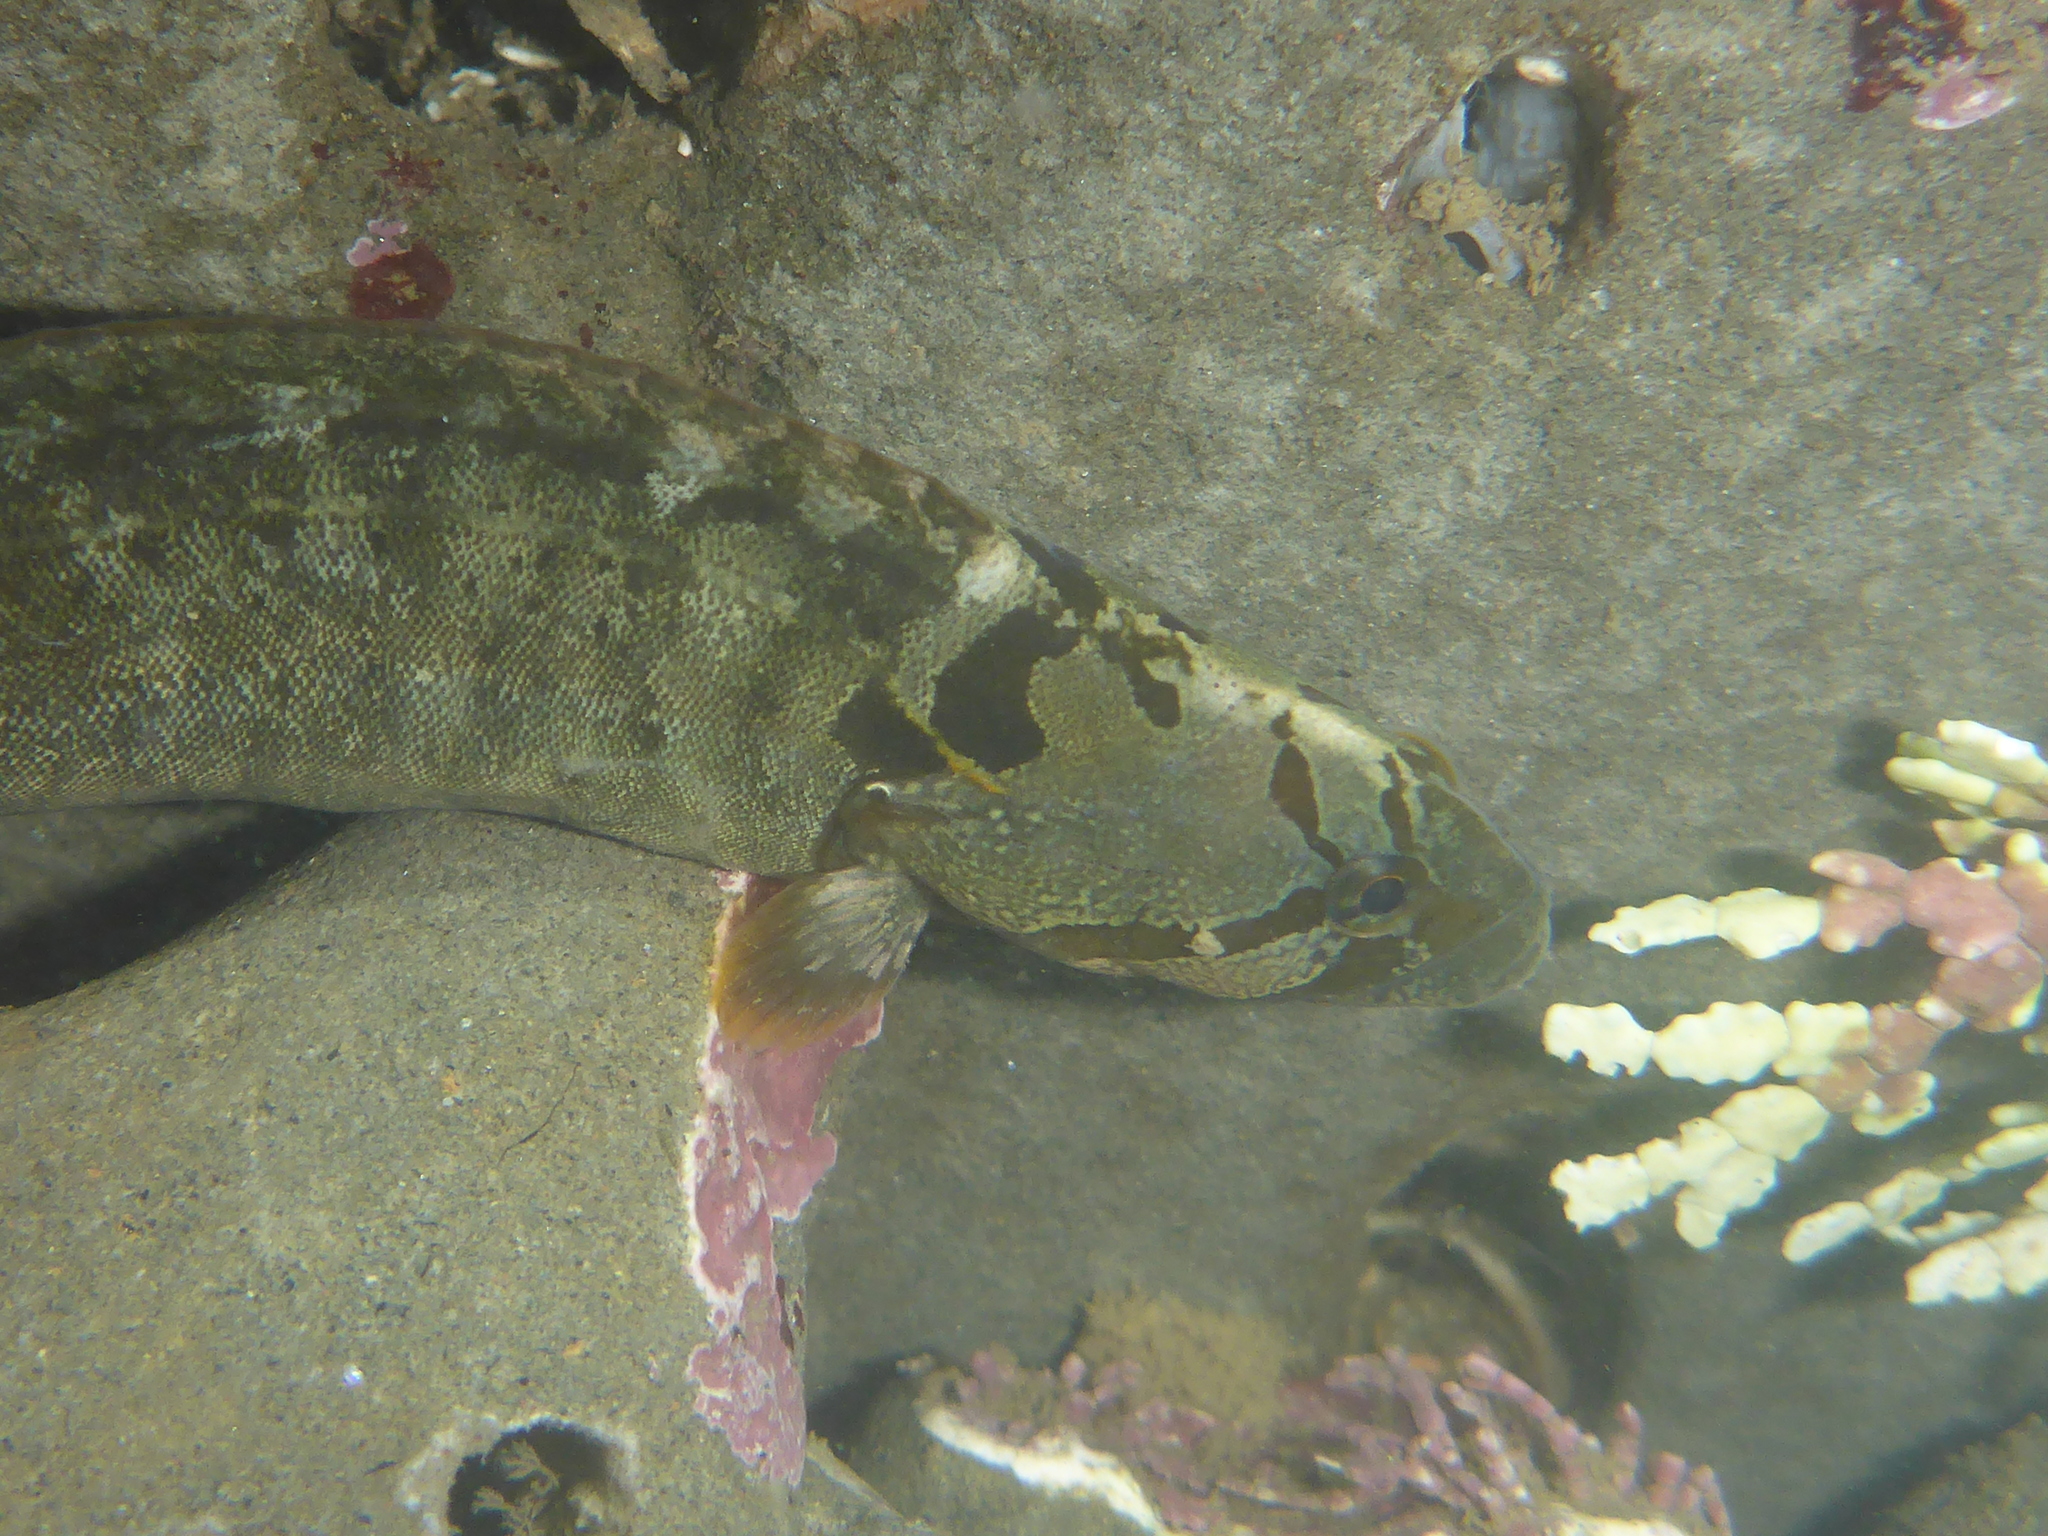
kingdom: Animalia
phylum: Chordata
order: Perciformes
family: Stichaeidae
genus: Cebidichthys
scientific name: Cebidichthys violaceus
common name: Monkeyface prickleback
